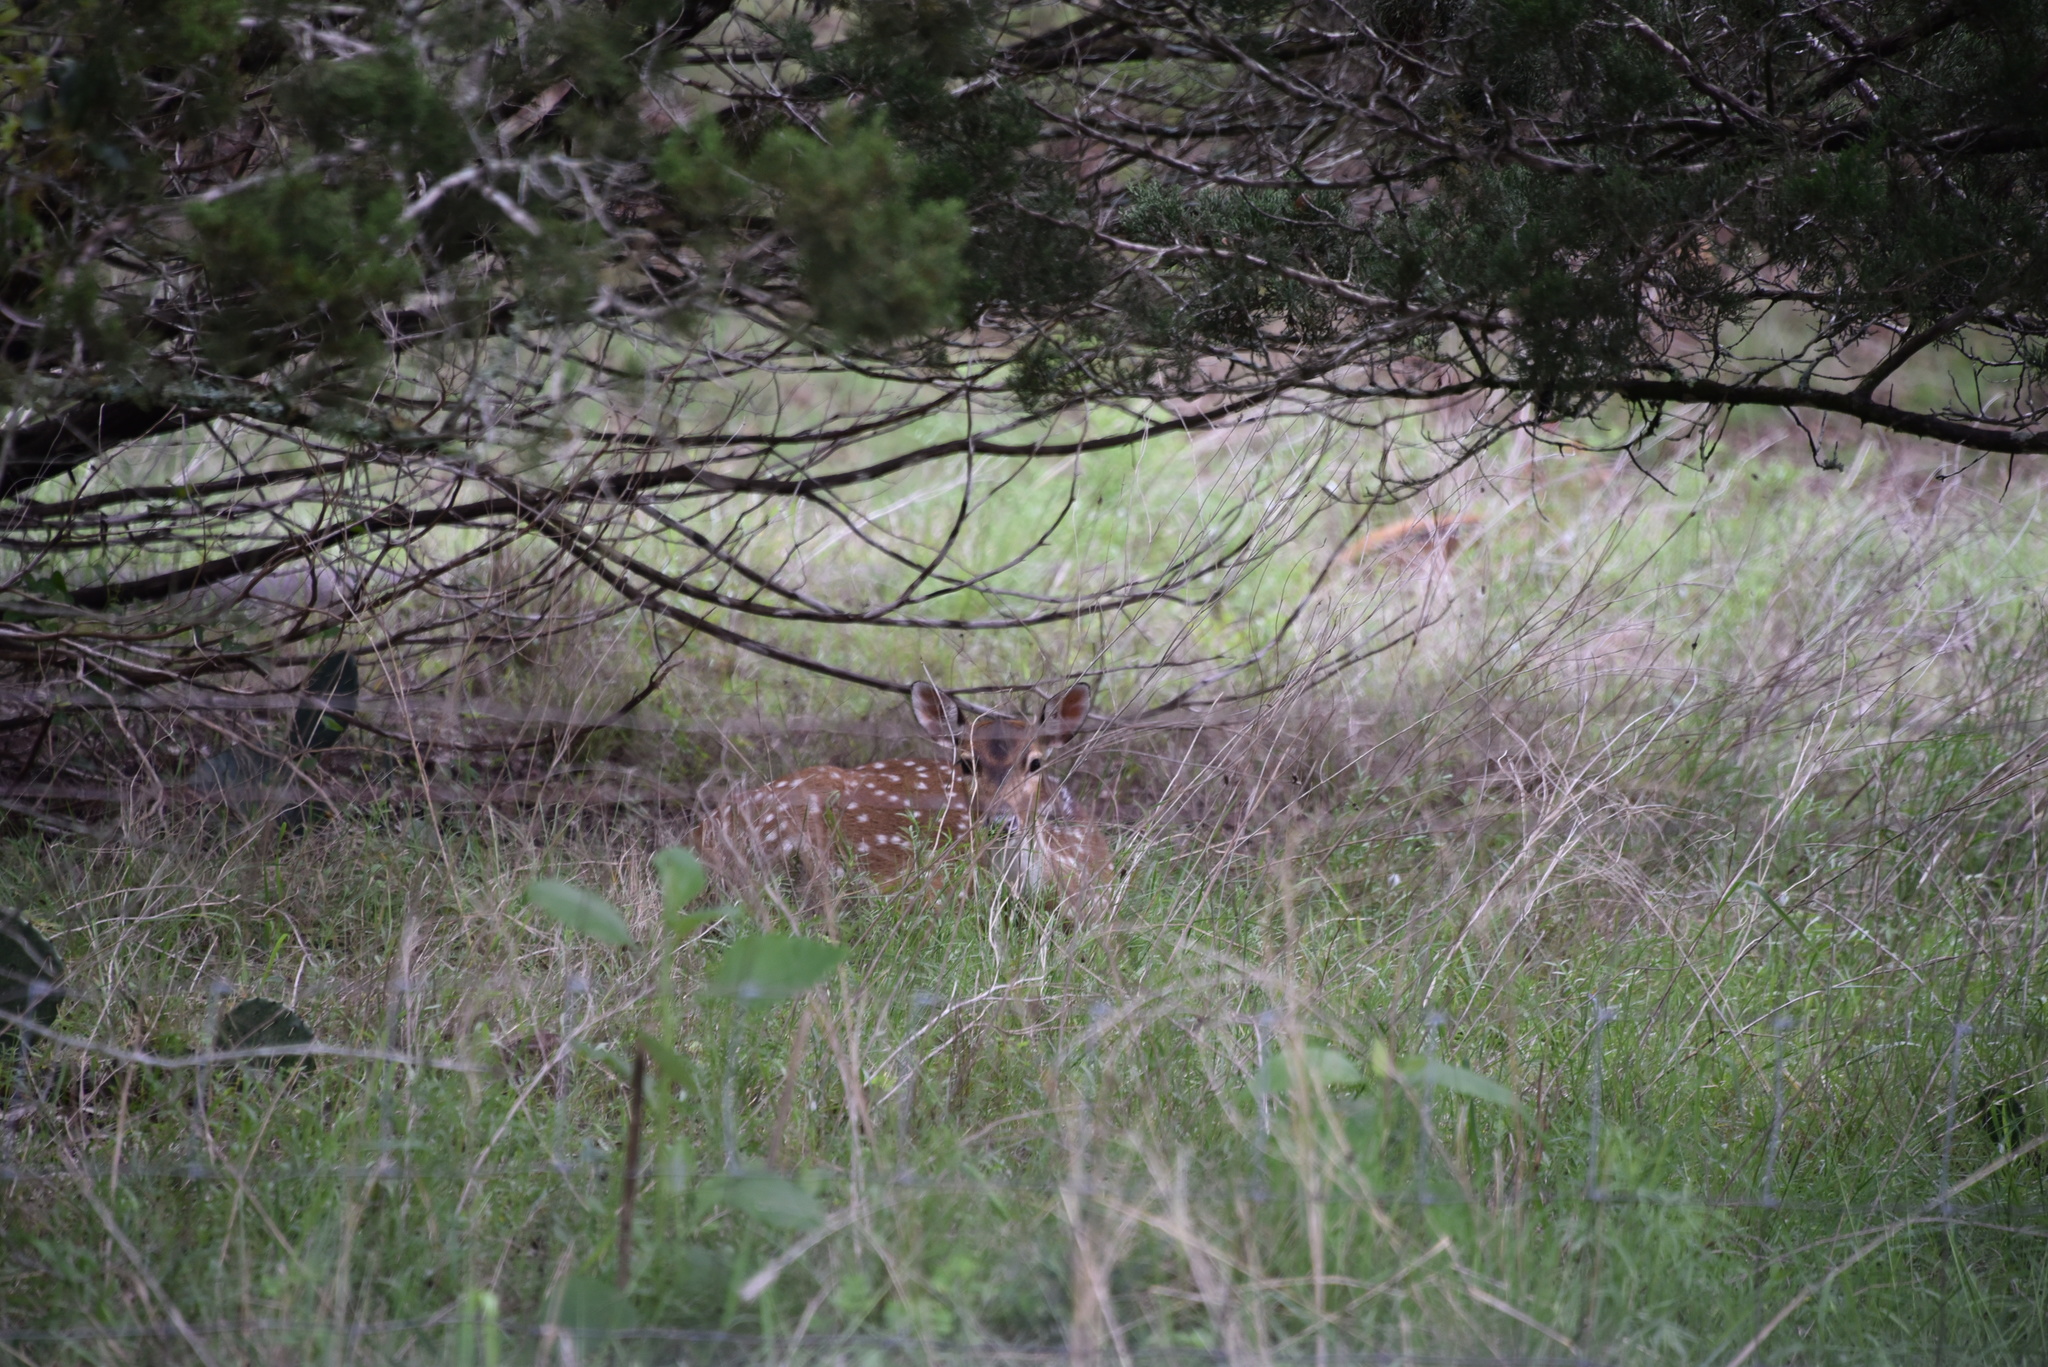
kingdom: Animalia
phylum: Chordata
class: Mammalia
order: Artiodactyla
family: Cervidae
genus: Axis
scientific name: Axis axis
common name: Chital
